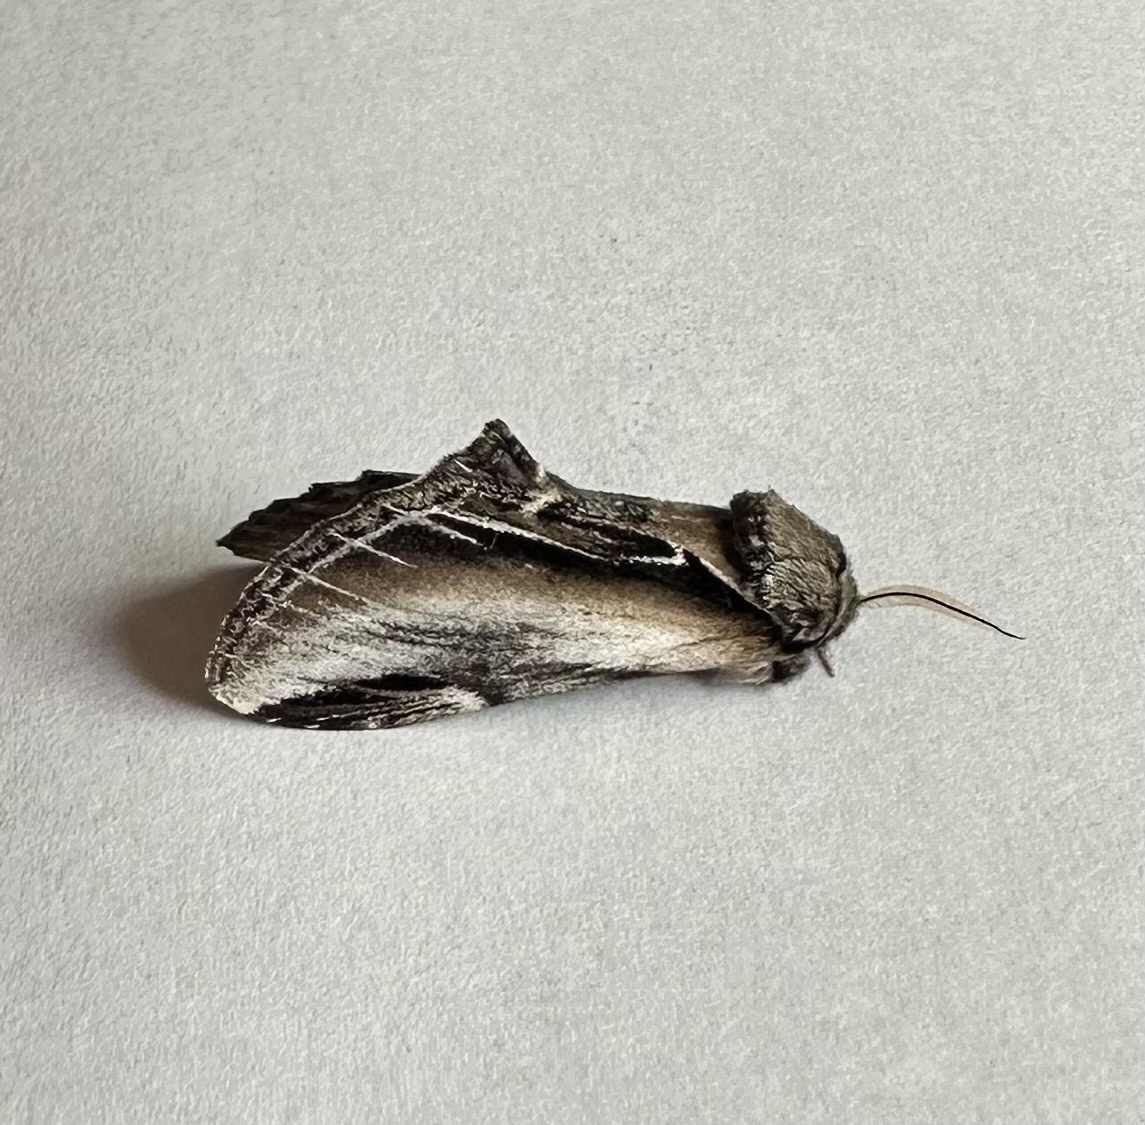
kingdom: Animalia
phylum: Arthropoda
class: Insecta
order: Lepidoptera
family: Notodontidae
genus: Pheosia
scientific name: Pheosia rimosa
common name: Black-rimmed prominent
